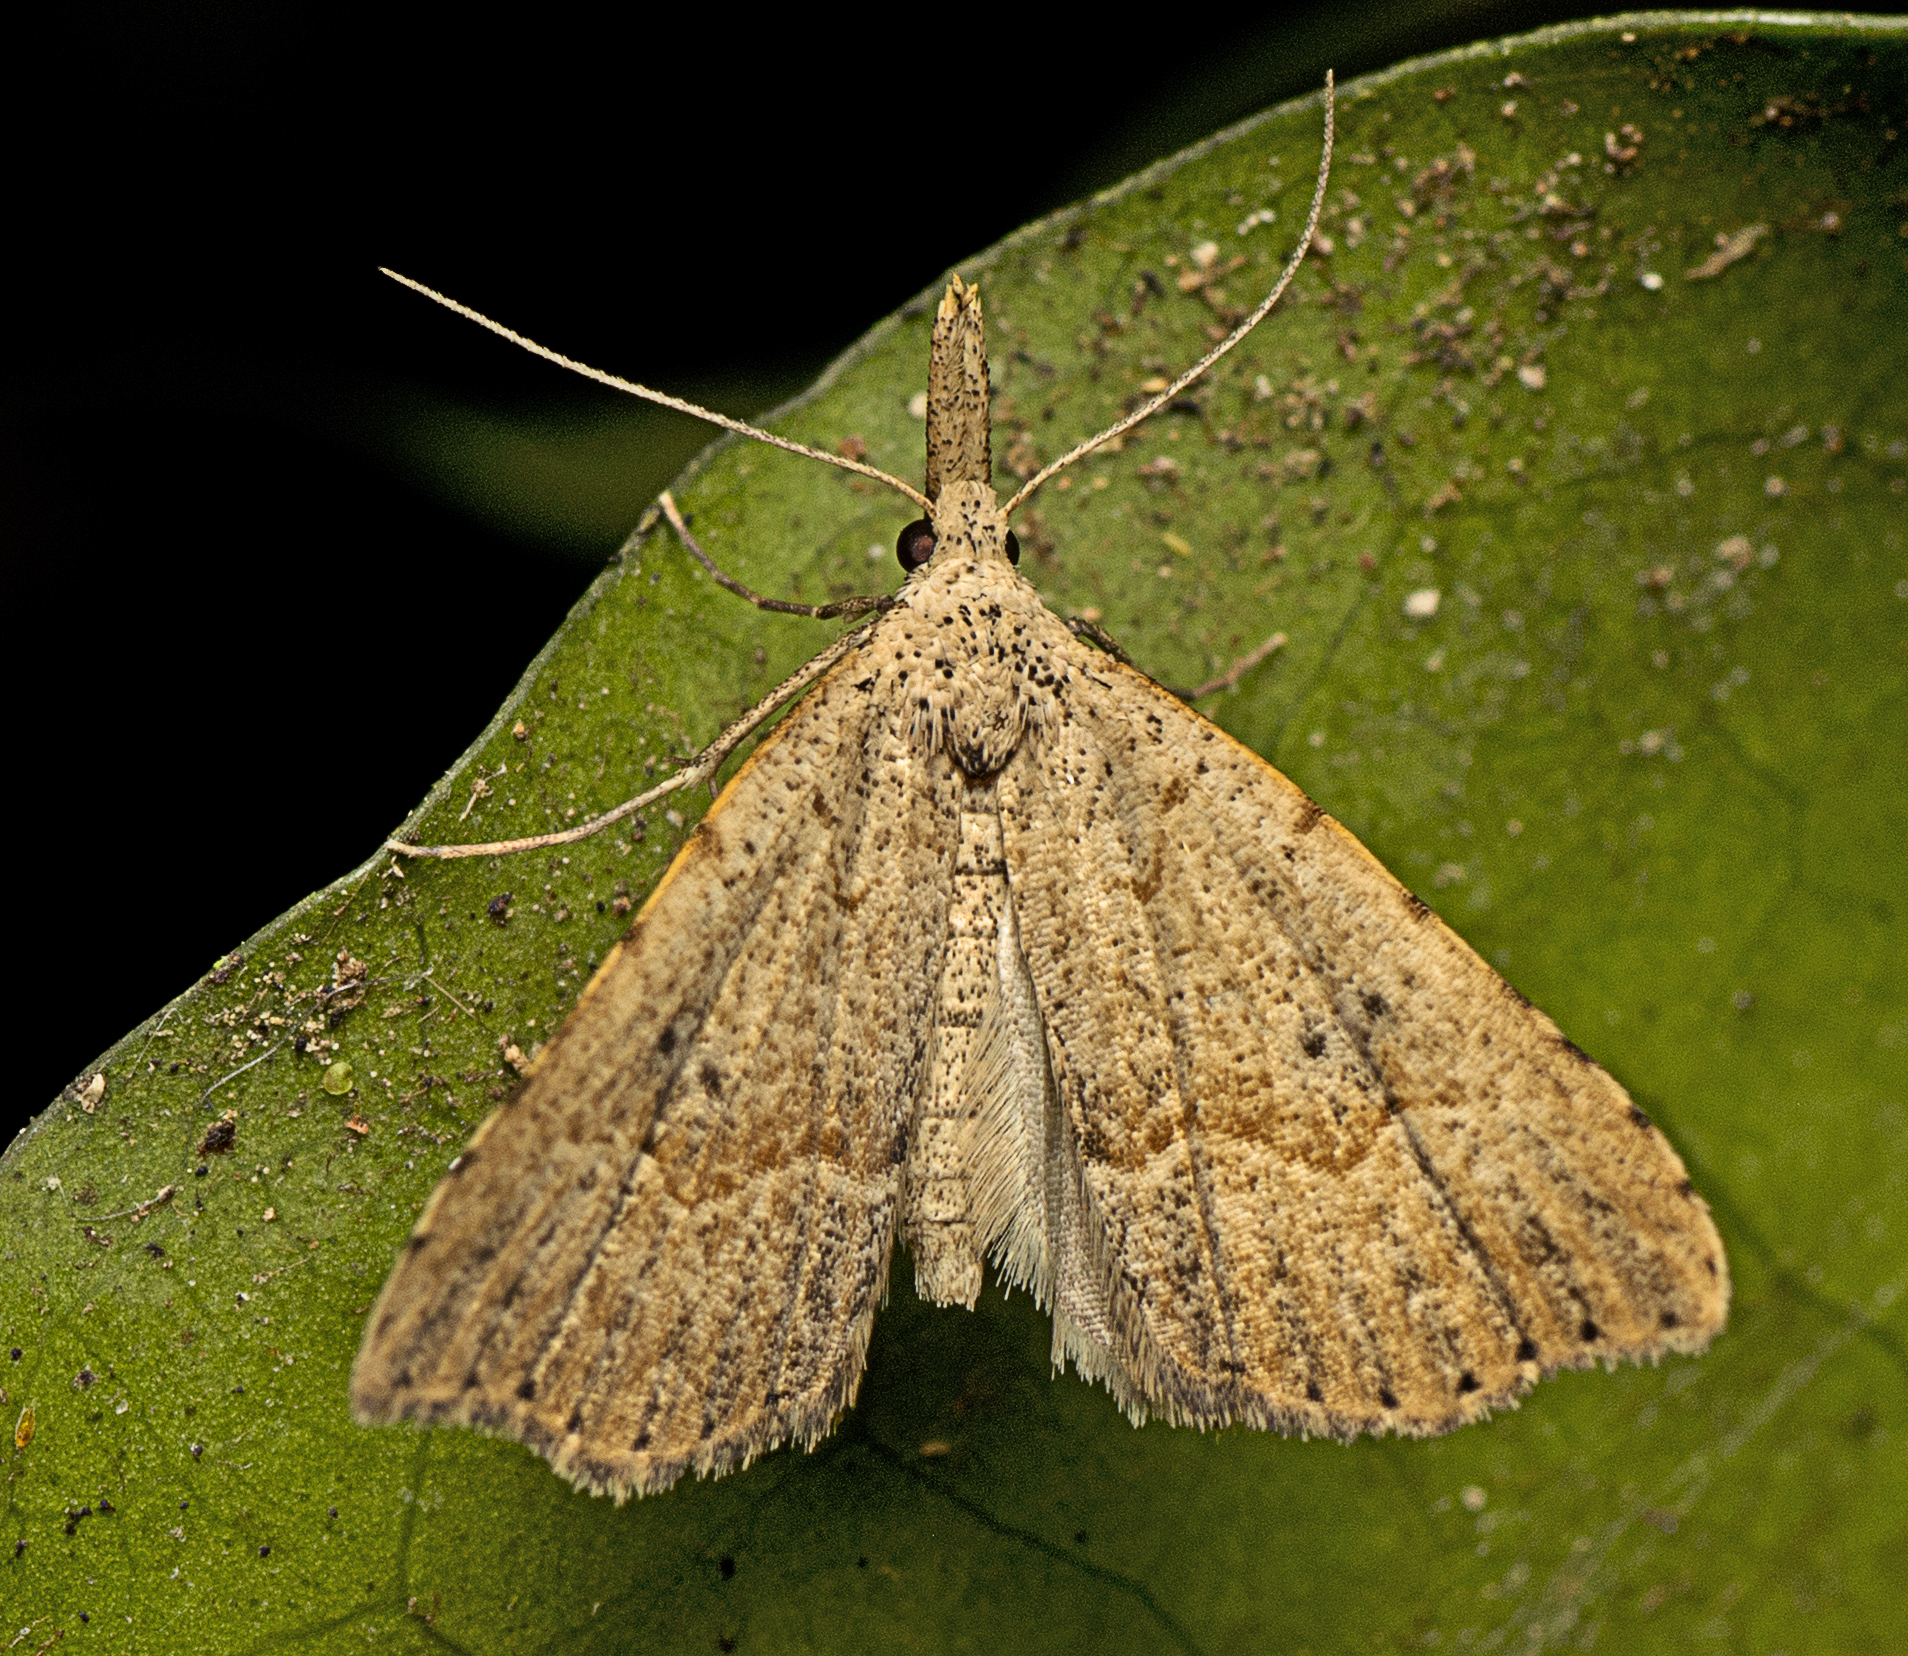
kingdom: Animalia
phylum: Arthropoda
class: Insecta
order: Lepidoptera
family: Erebidae
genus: Trigonistis
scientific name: Trigonistis asthenopa
